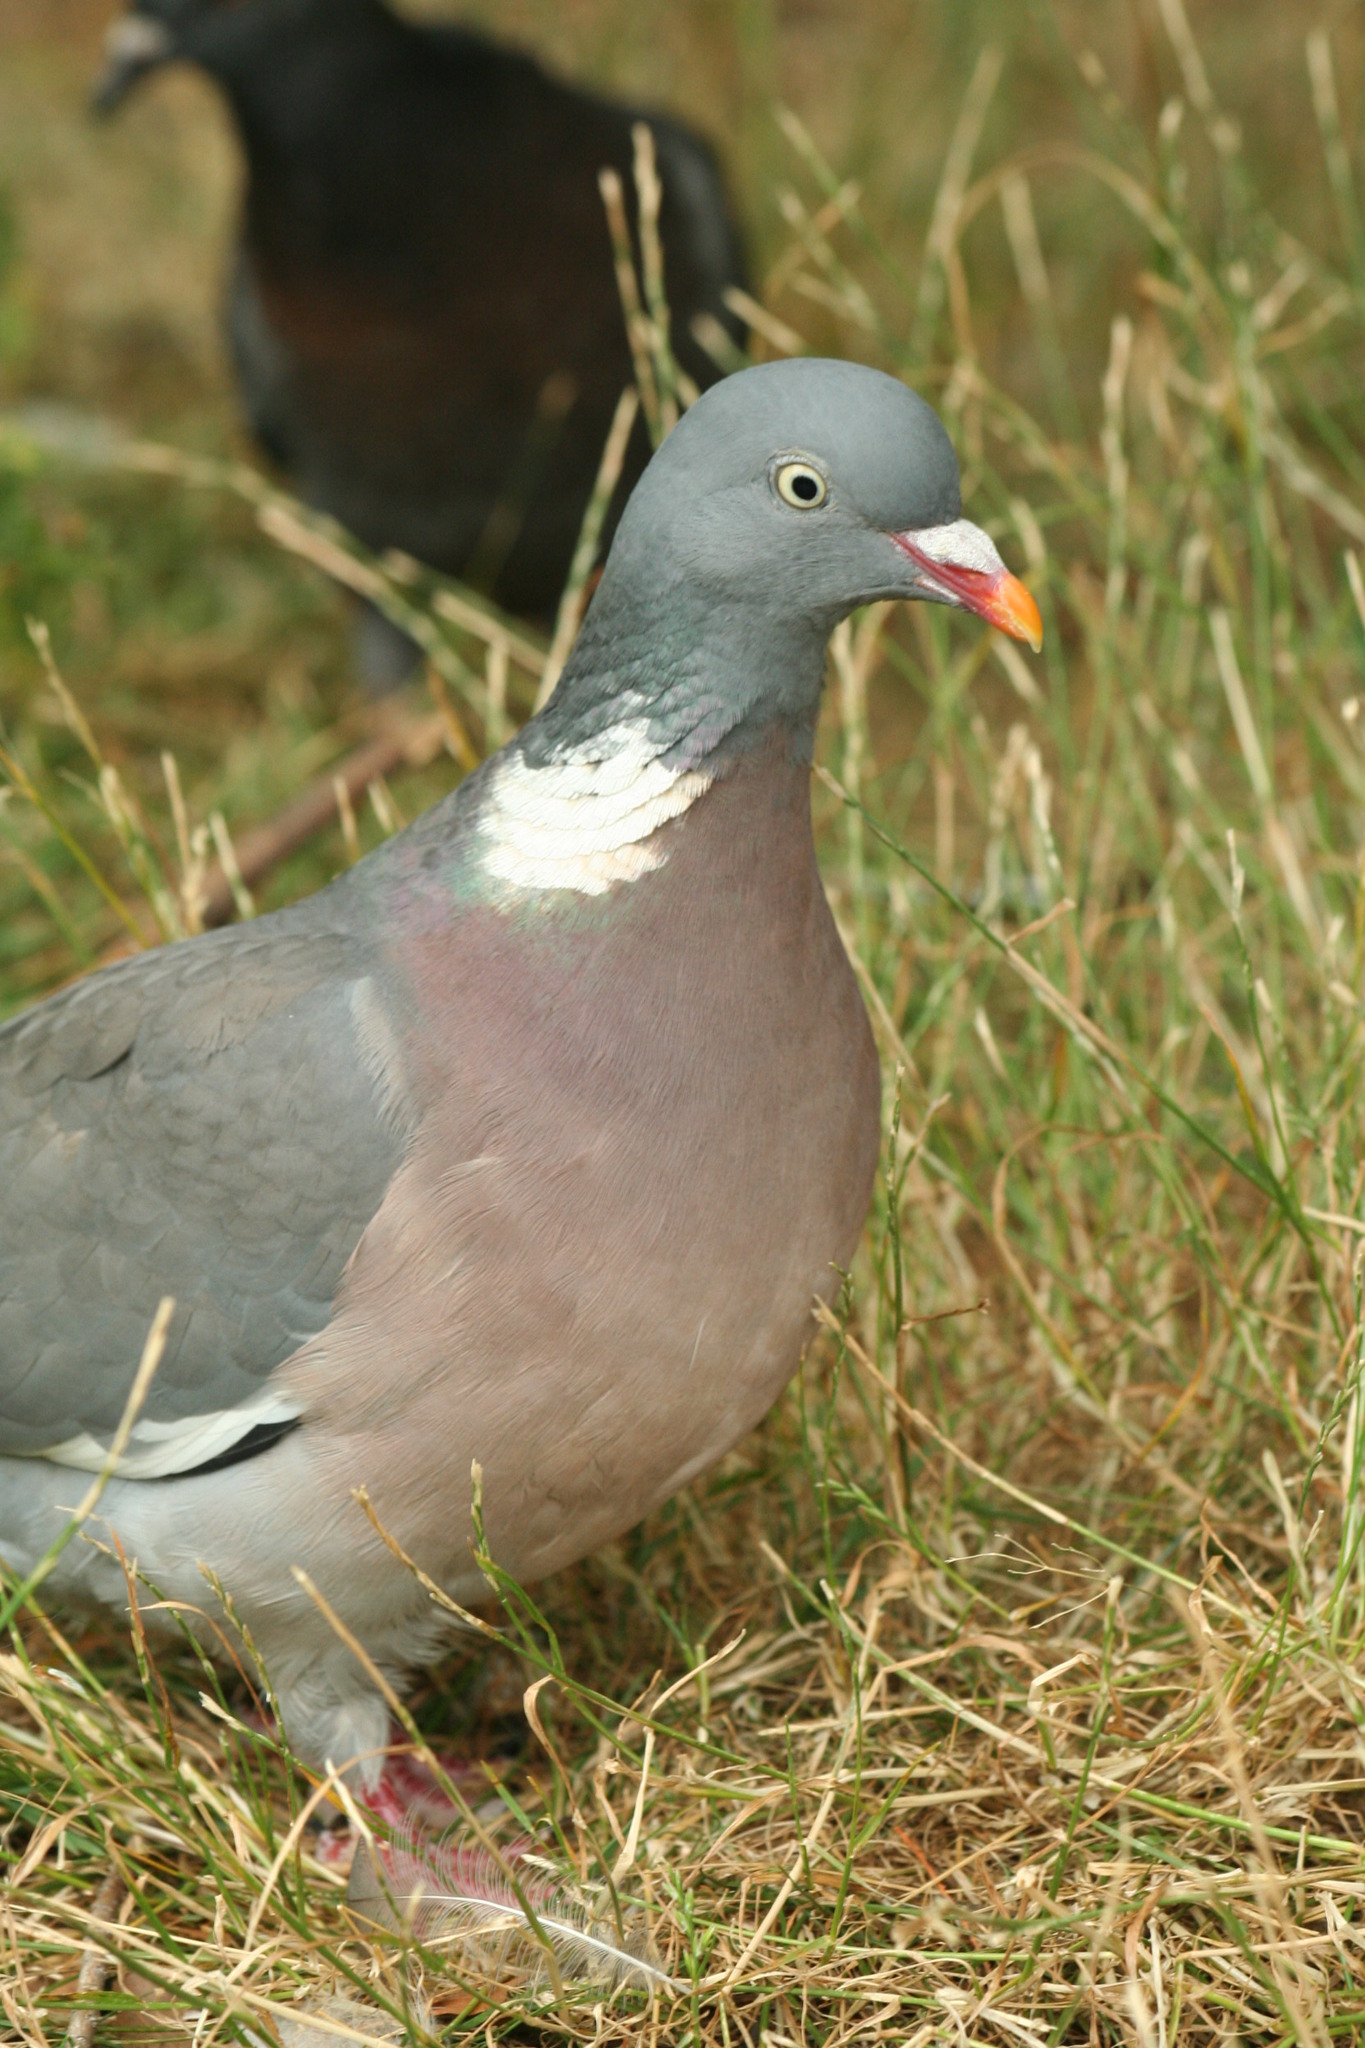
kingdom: Animalia
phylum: Chordata
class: Aves
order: Columbiformes
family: Columbidae
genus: Columba
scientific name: Columba palumbus
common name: Common wood pigeon
